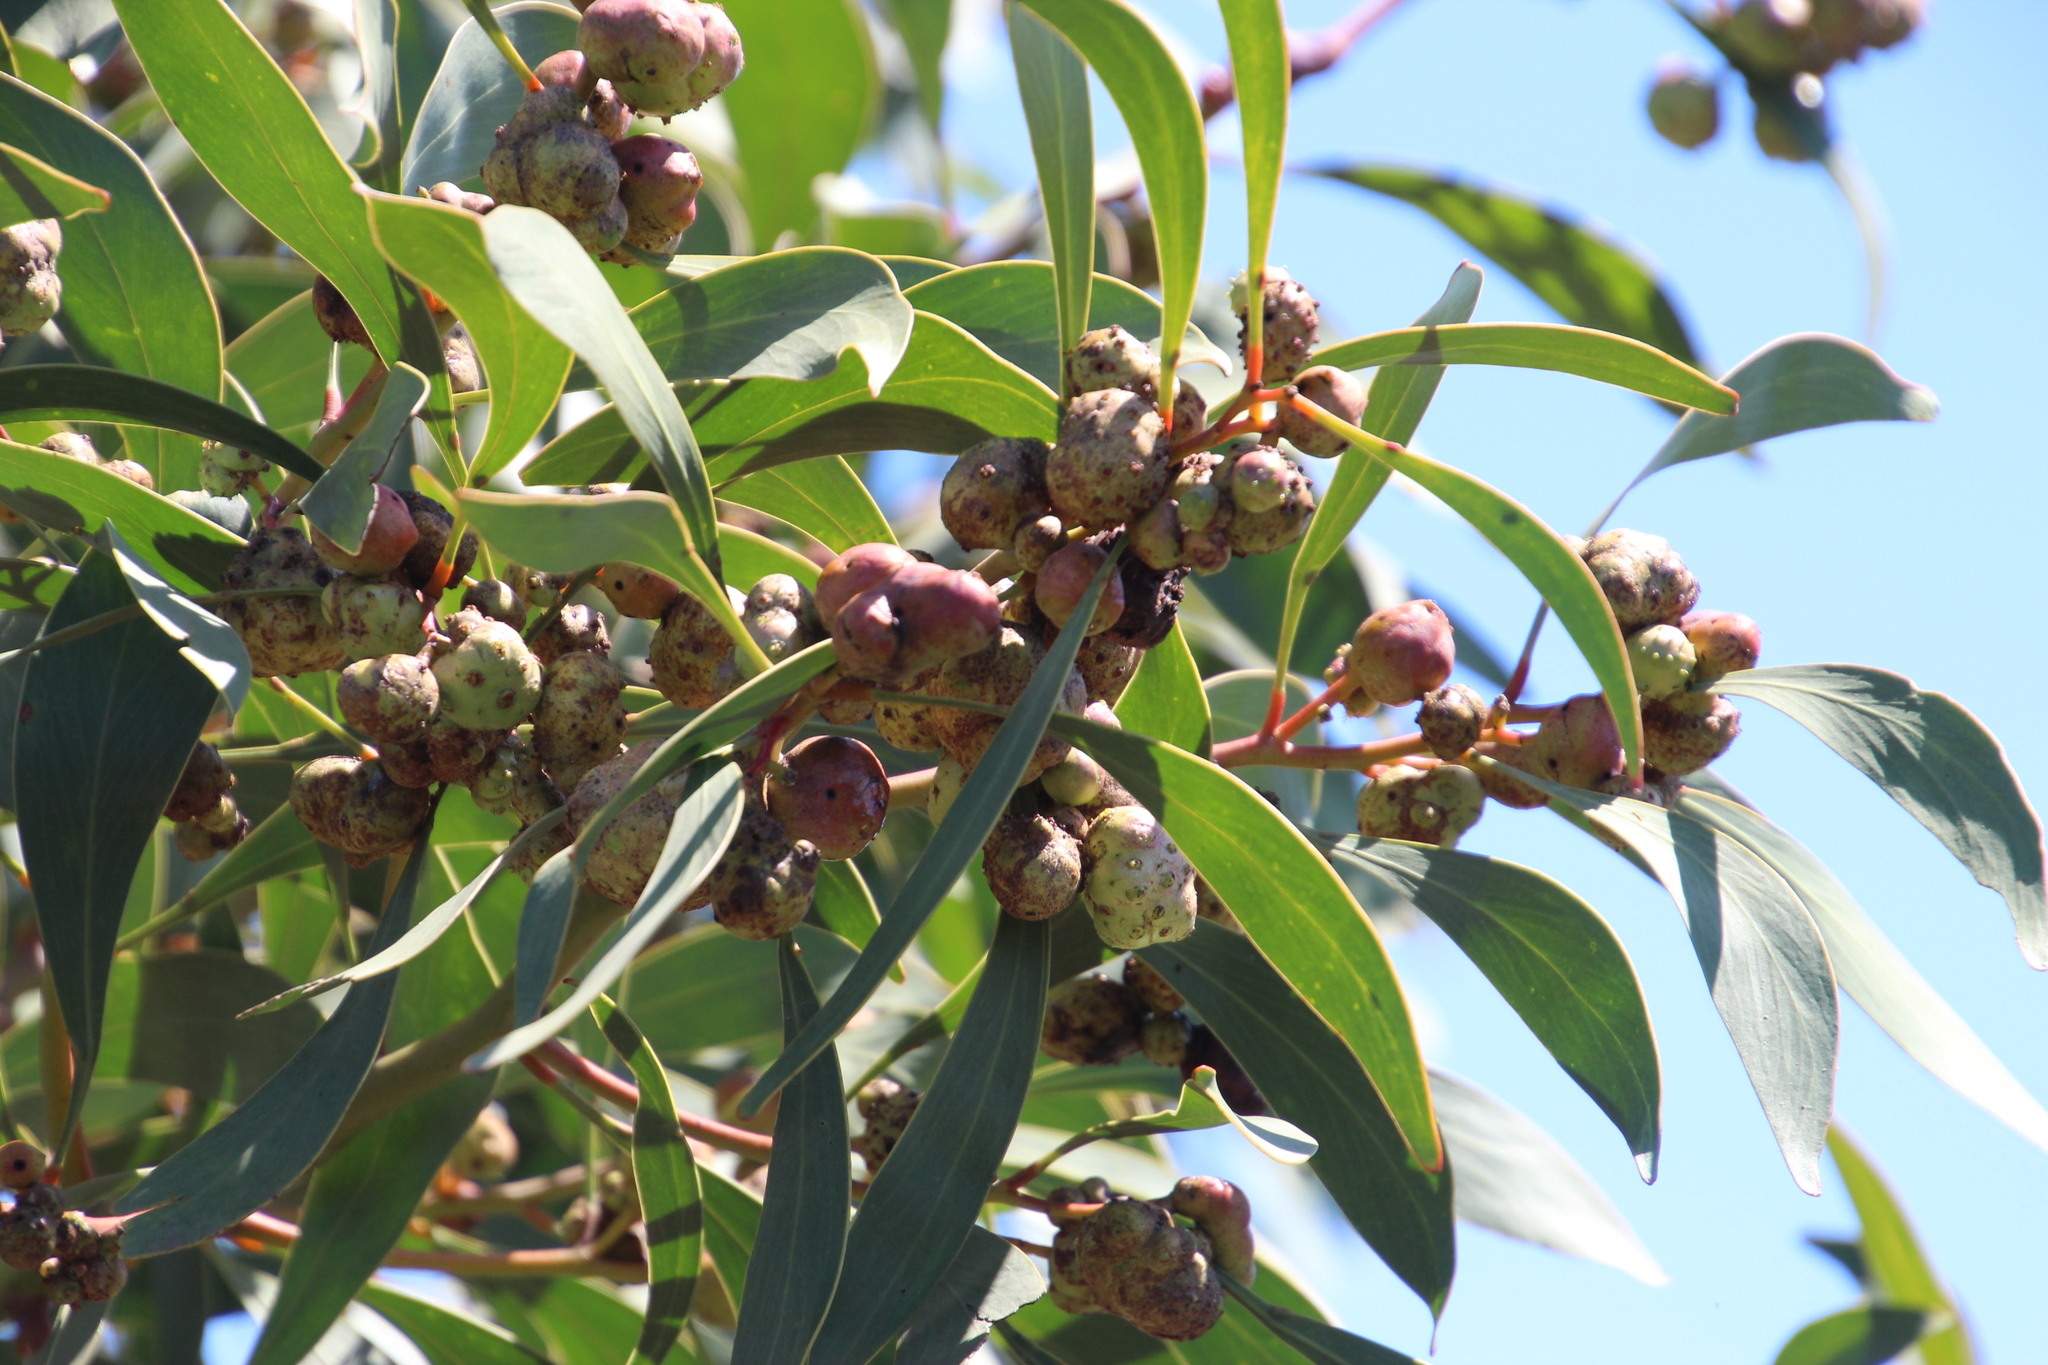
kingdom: Animalia
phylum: Arthropoda
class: Insecta
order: Hymenoptera
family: Pteromalidae
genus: Trichilogaster
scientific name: Trichilogaster signiventris
